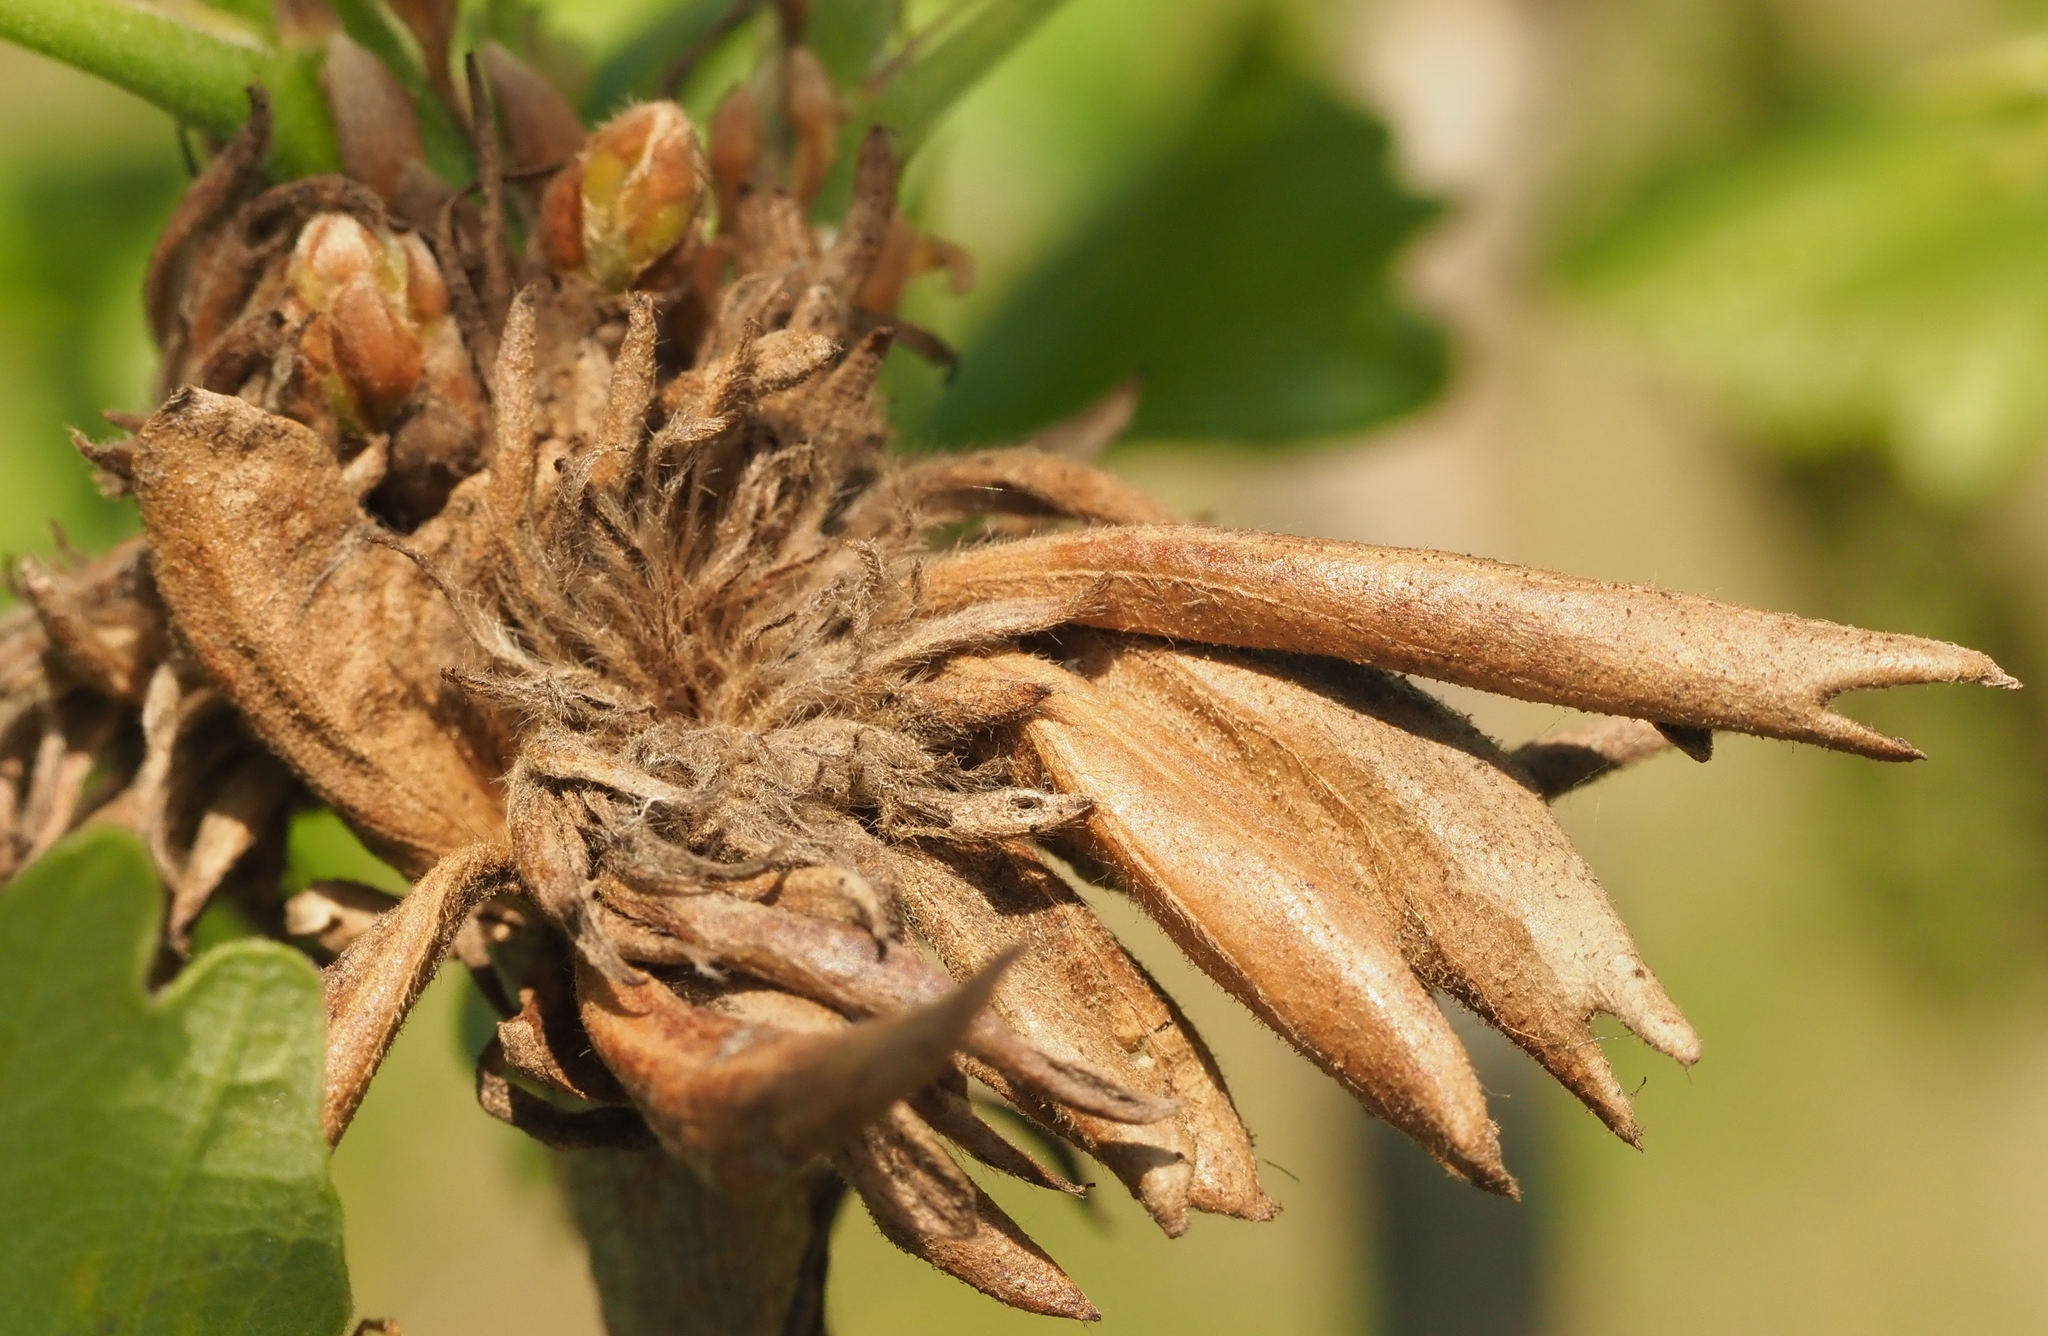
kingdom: Animalia
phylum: Arthropoda
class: Insecta
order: Hymenoptera
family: Cynipidae
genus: Andricus
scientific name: Andricus
